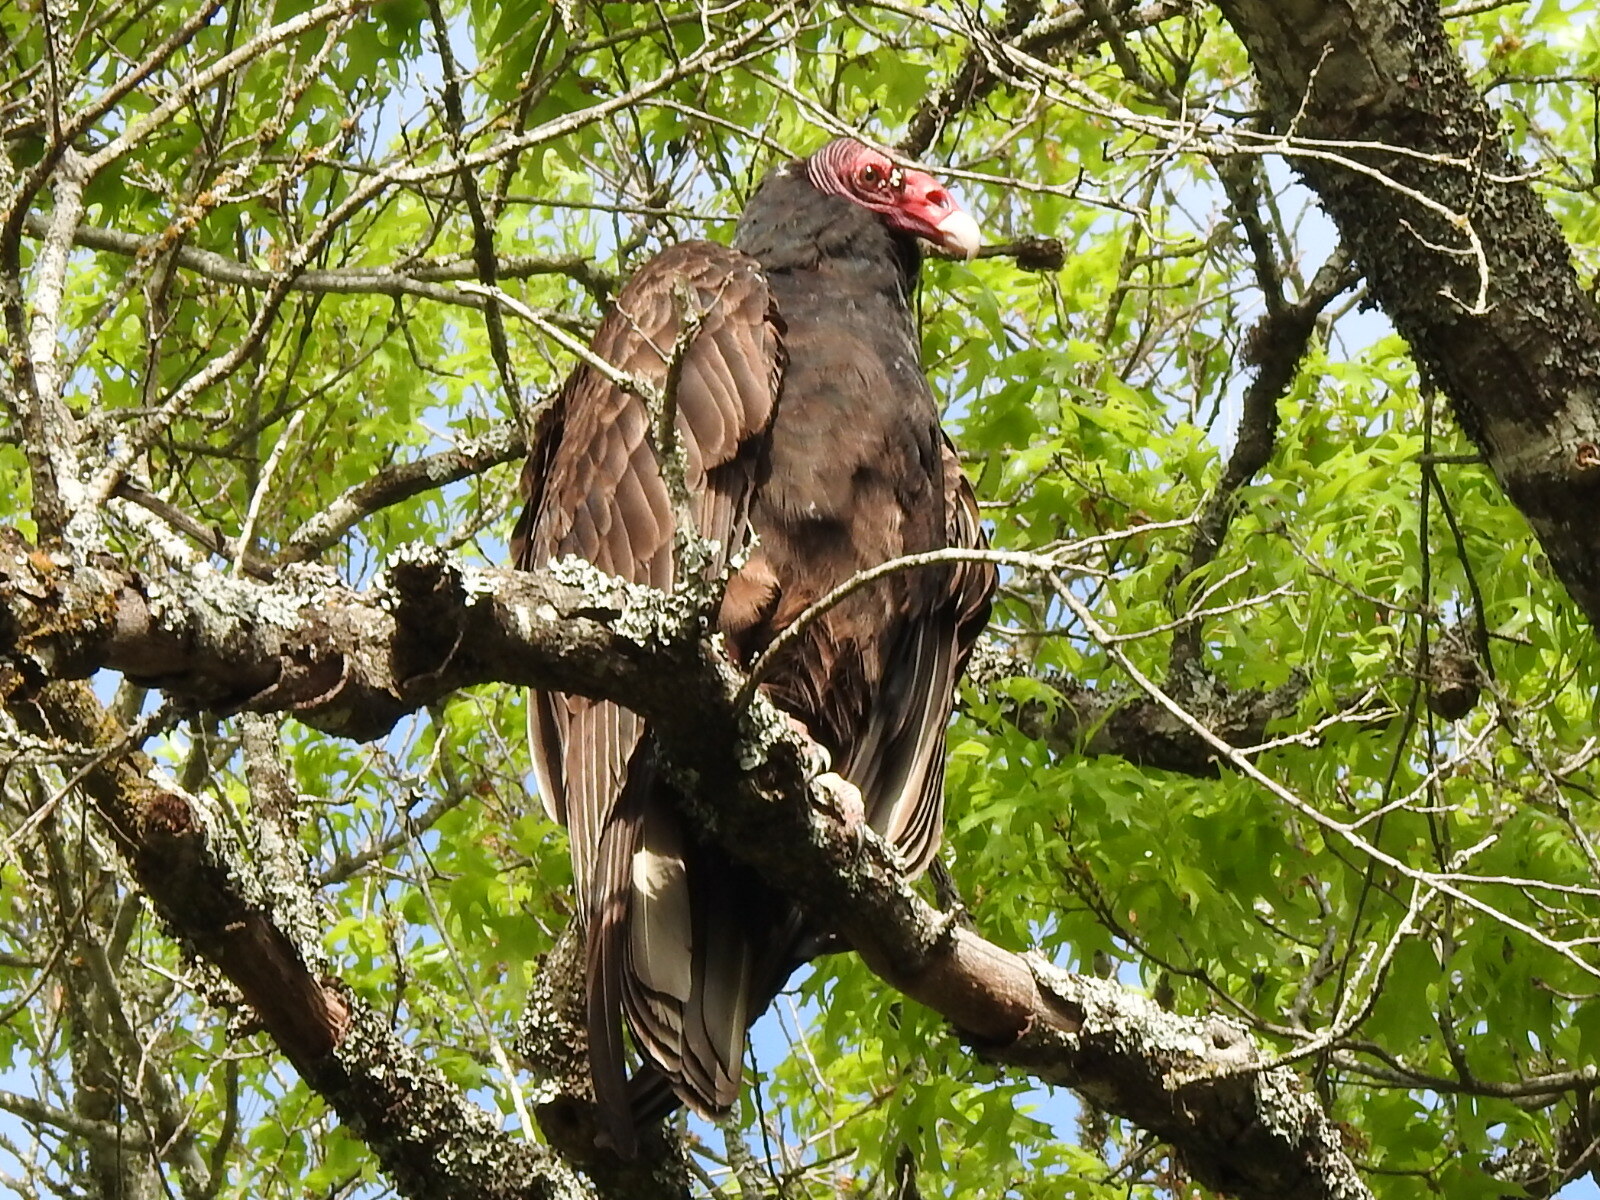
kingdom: Animalia
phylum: Chordata
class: Aves
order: Accipitriformes
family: Cathartidae
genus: Cathartes
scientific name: Cathartes aura
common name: Turkey vulture
